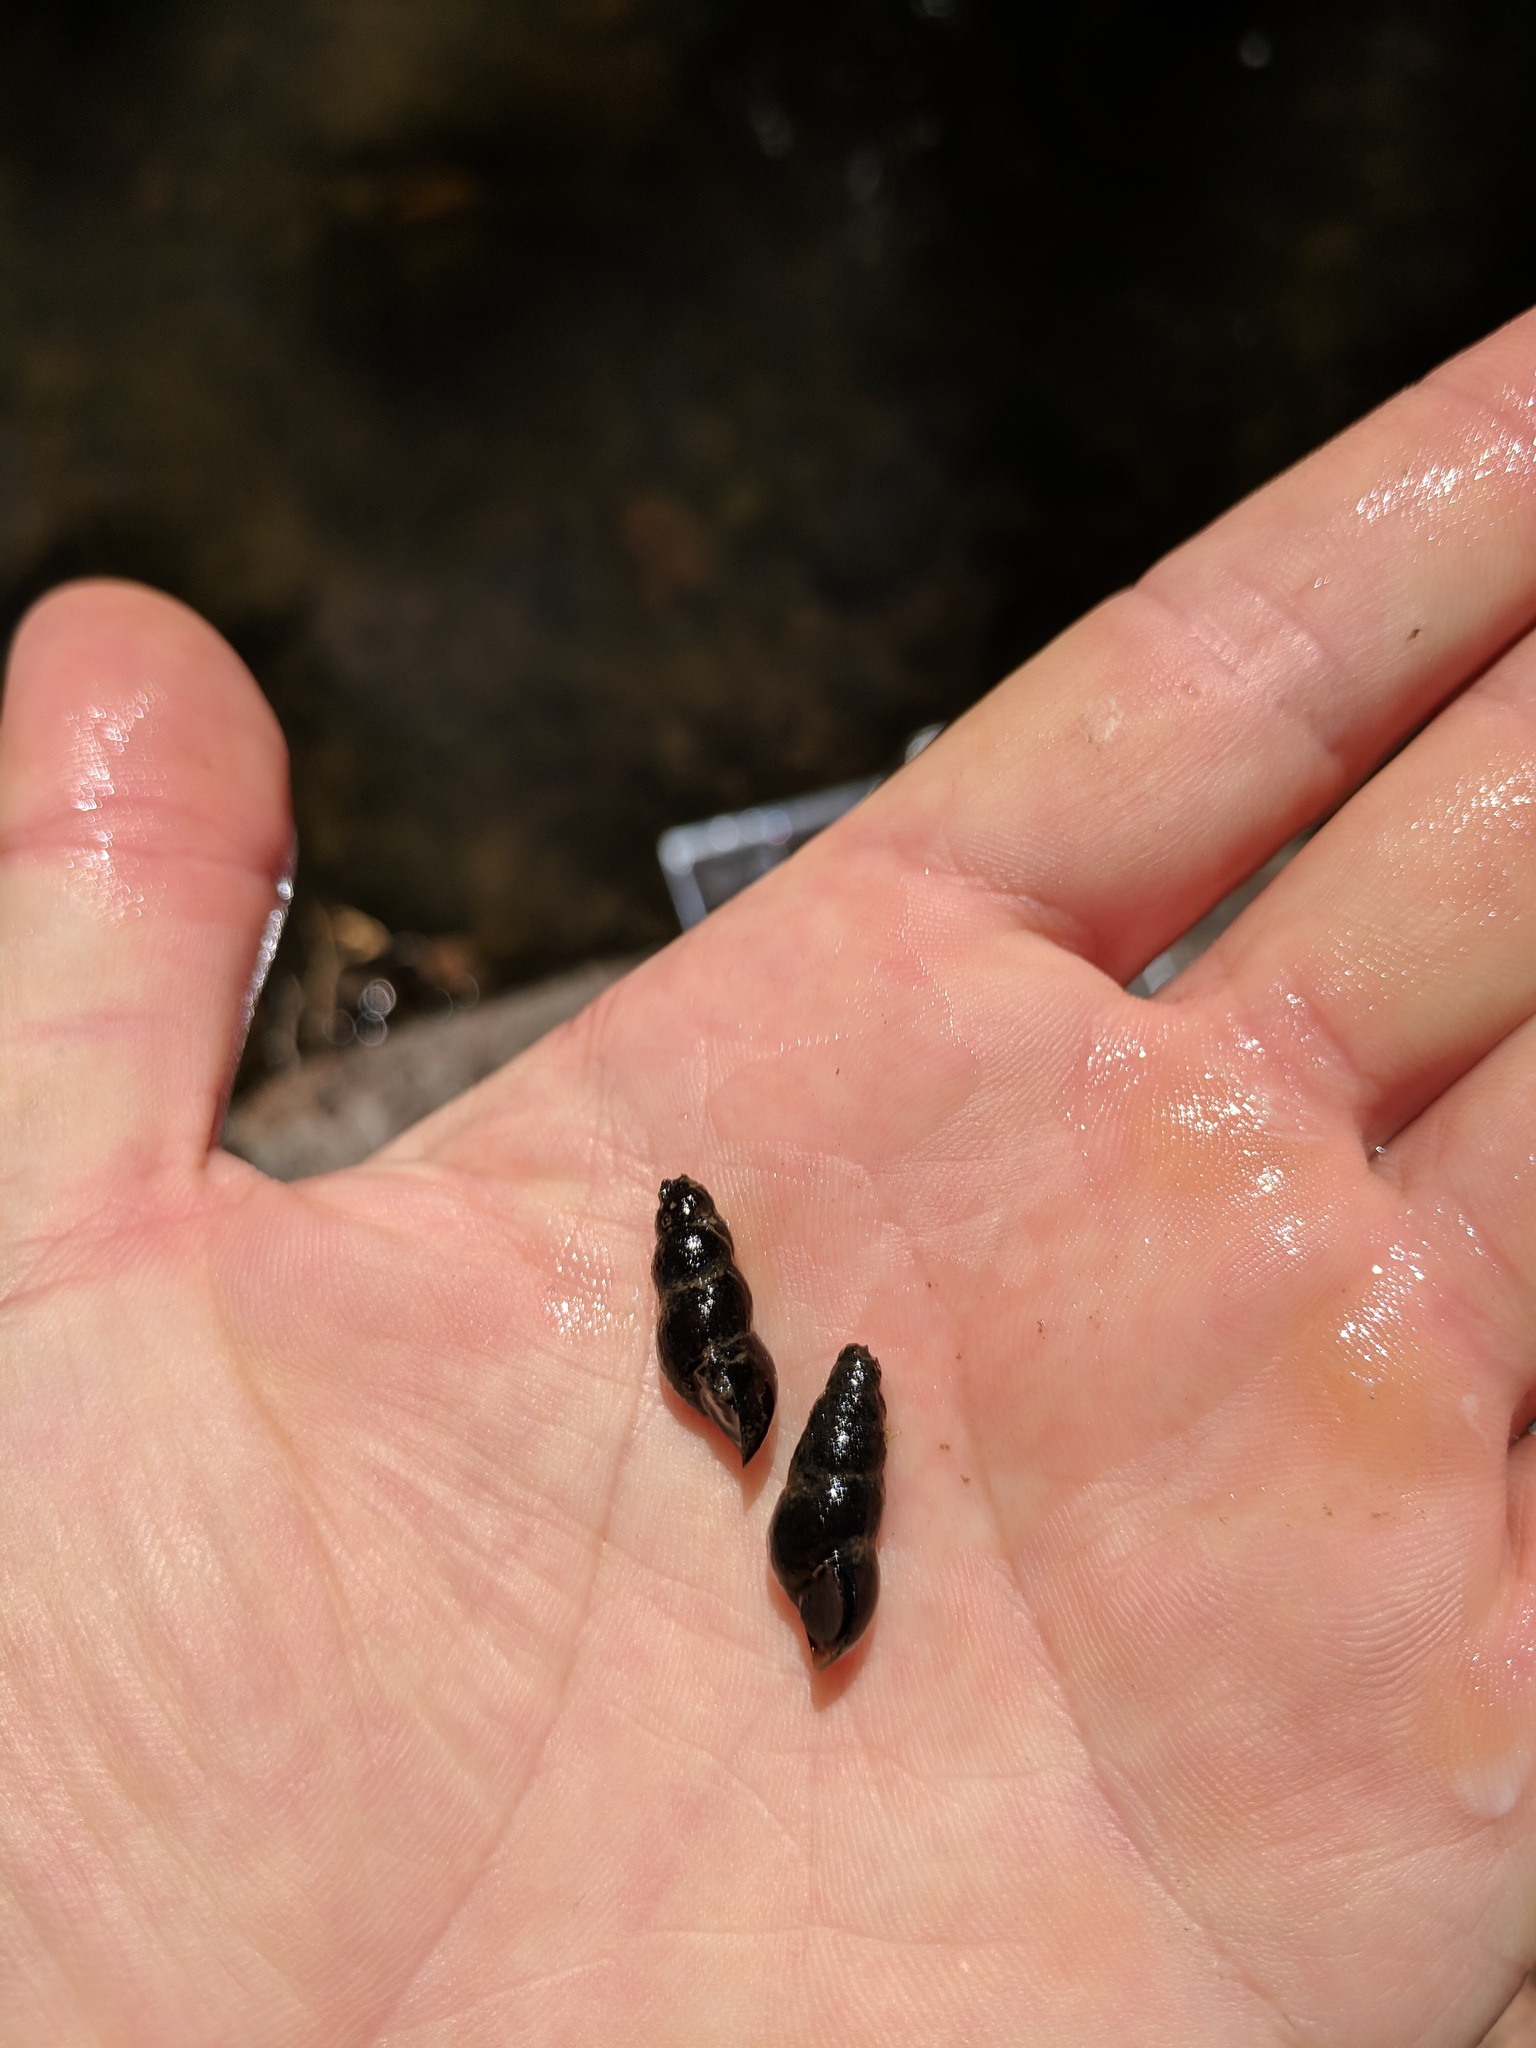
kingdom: Animalia
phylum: Mollusca
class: Gastropoda
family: Semisulcospiridae
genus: Juga
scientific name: Juga nigrina
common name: Black juga
